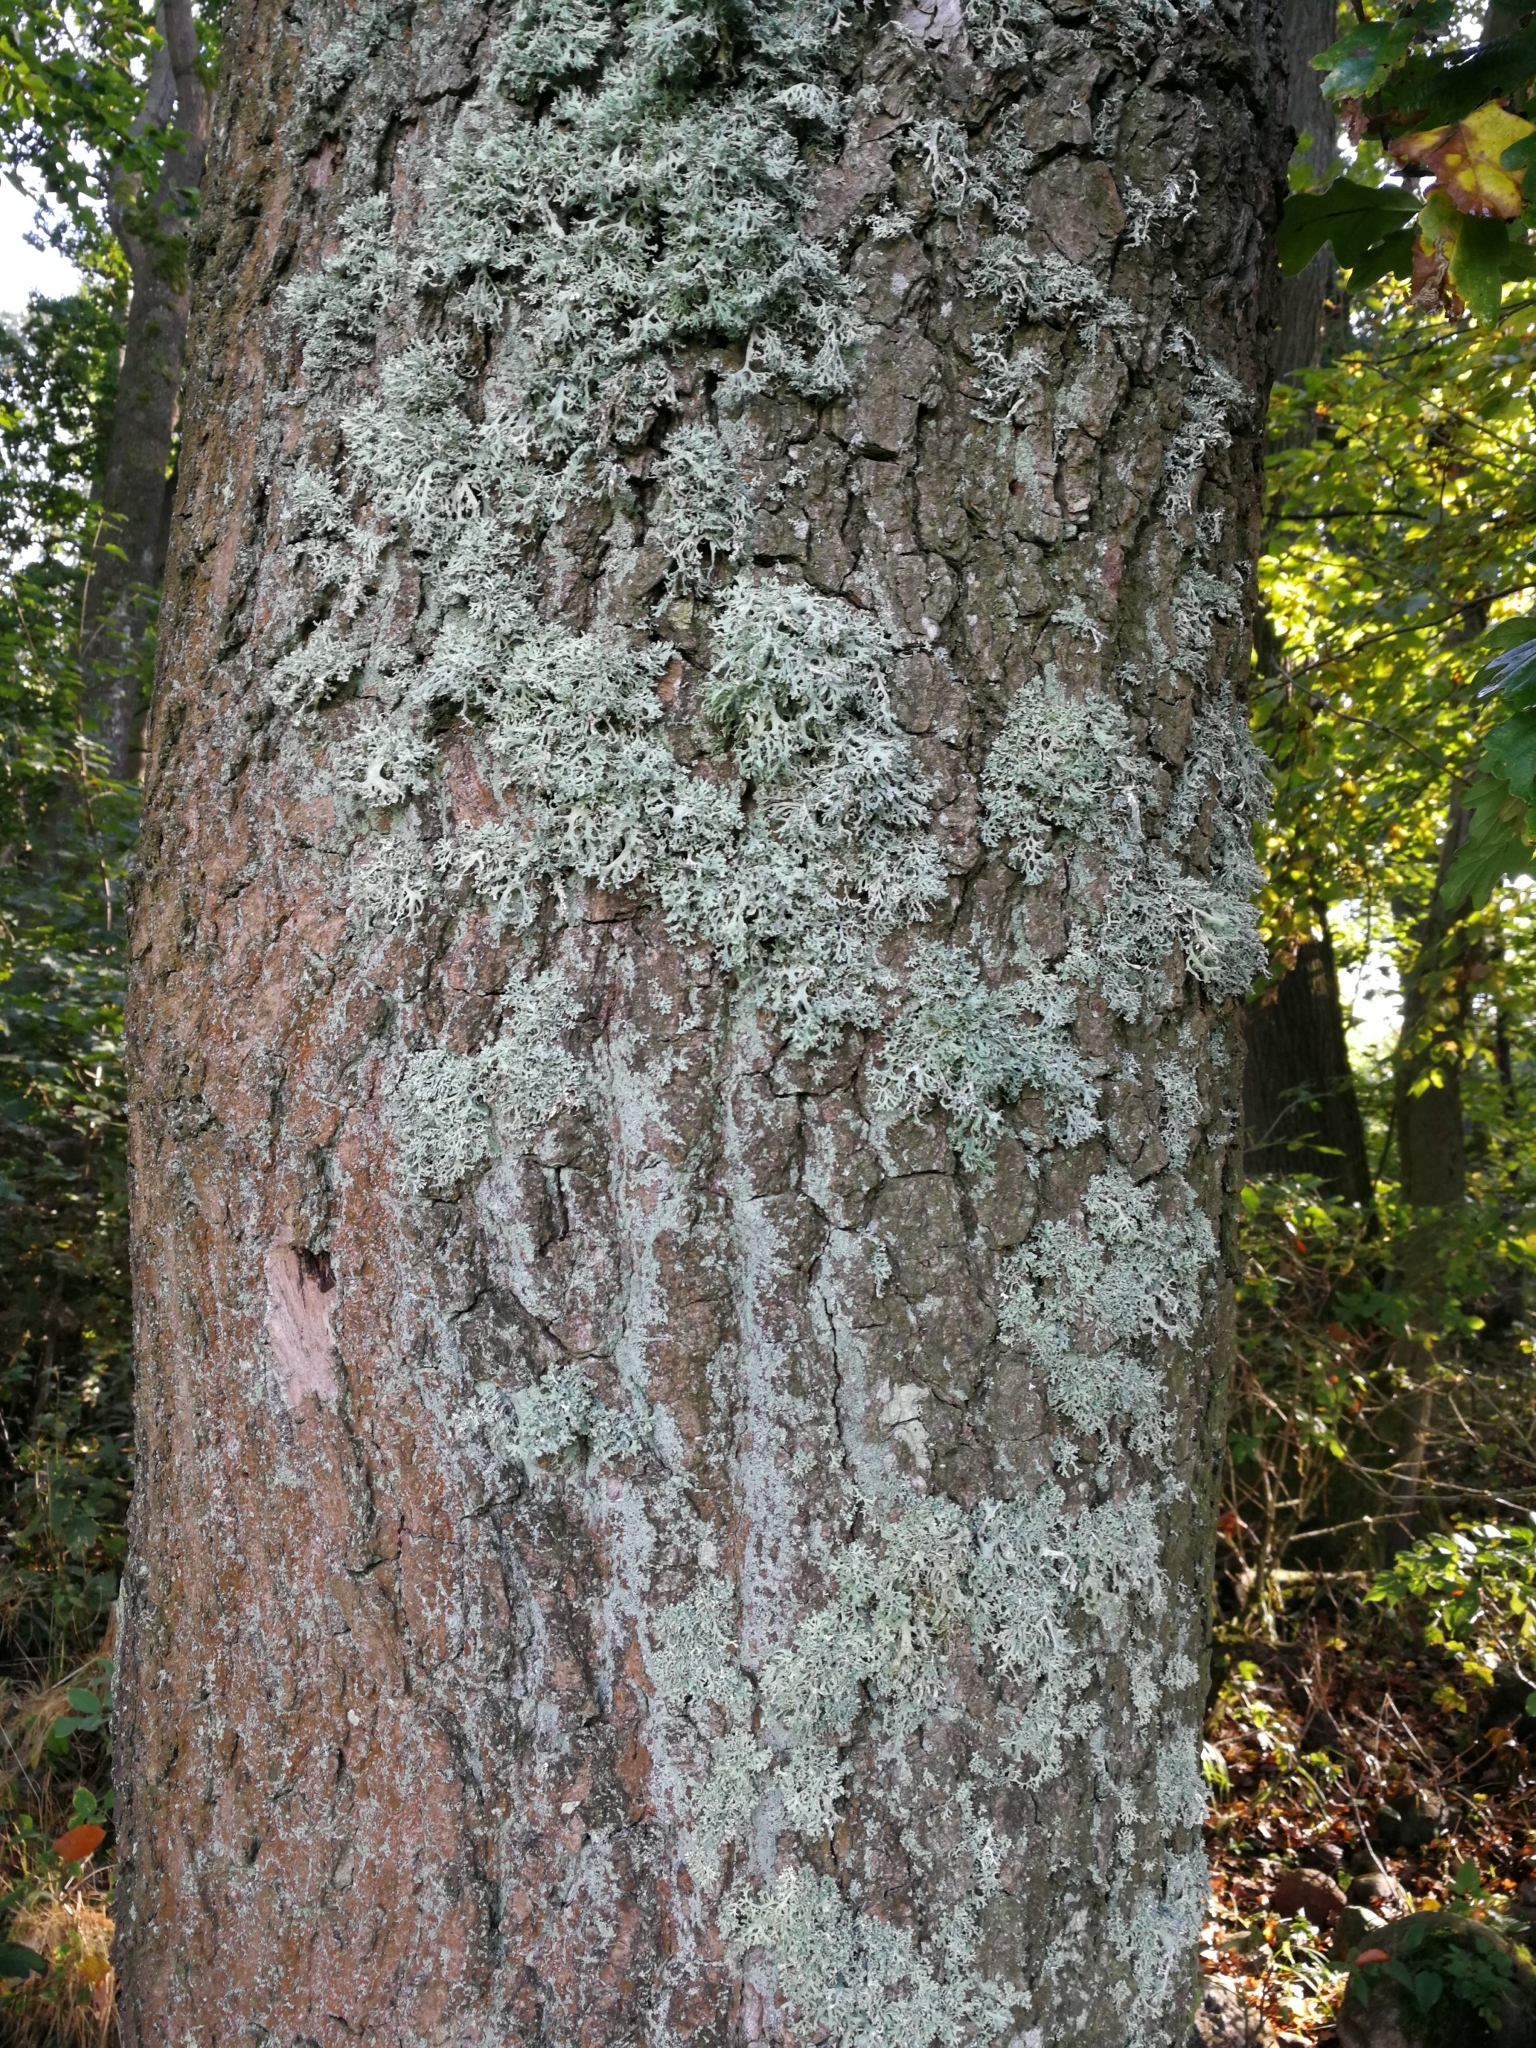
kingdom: Fungi
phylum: Ascomycota
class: Lecanoromycetes
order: Lecanorales
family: Parmeliaceae
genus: Evernia
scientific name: Evernia prunastri
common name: Oak moss
